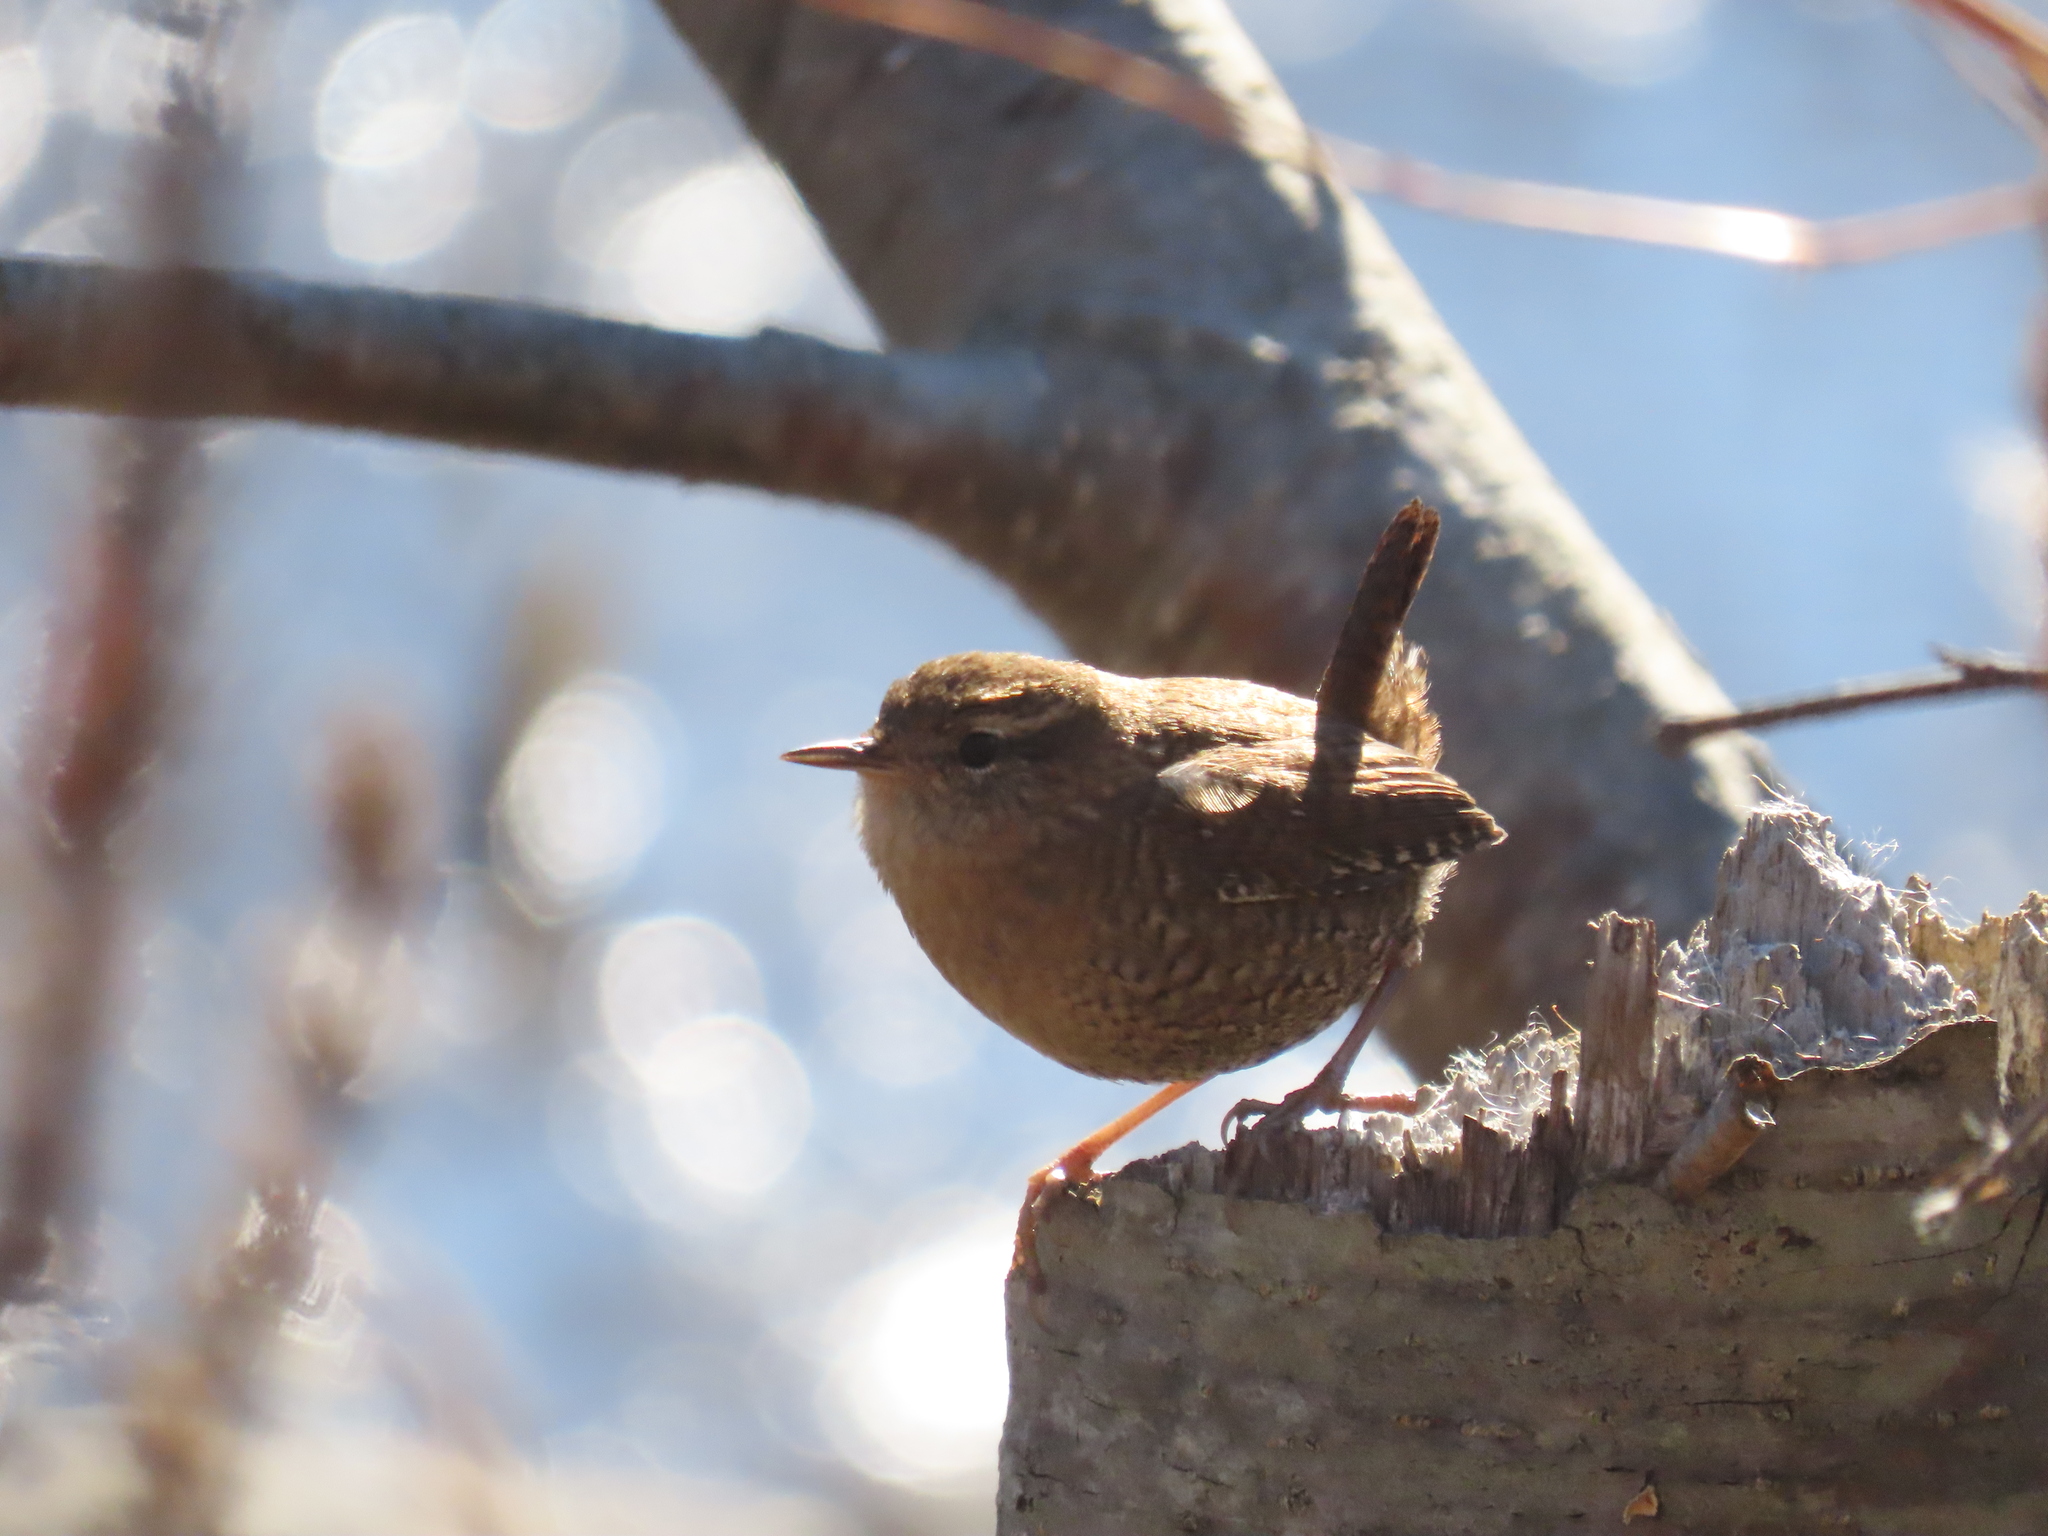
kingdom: Animalia
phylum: Chordata
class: Aves
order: Passeriformes
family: Troglodytidae
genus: Troglodytes
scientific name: Troglodytes hiemalis
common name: Winter wren
